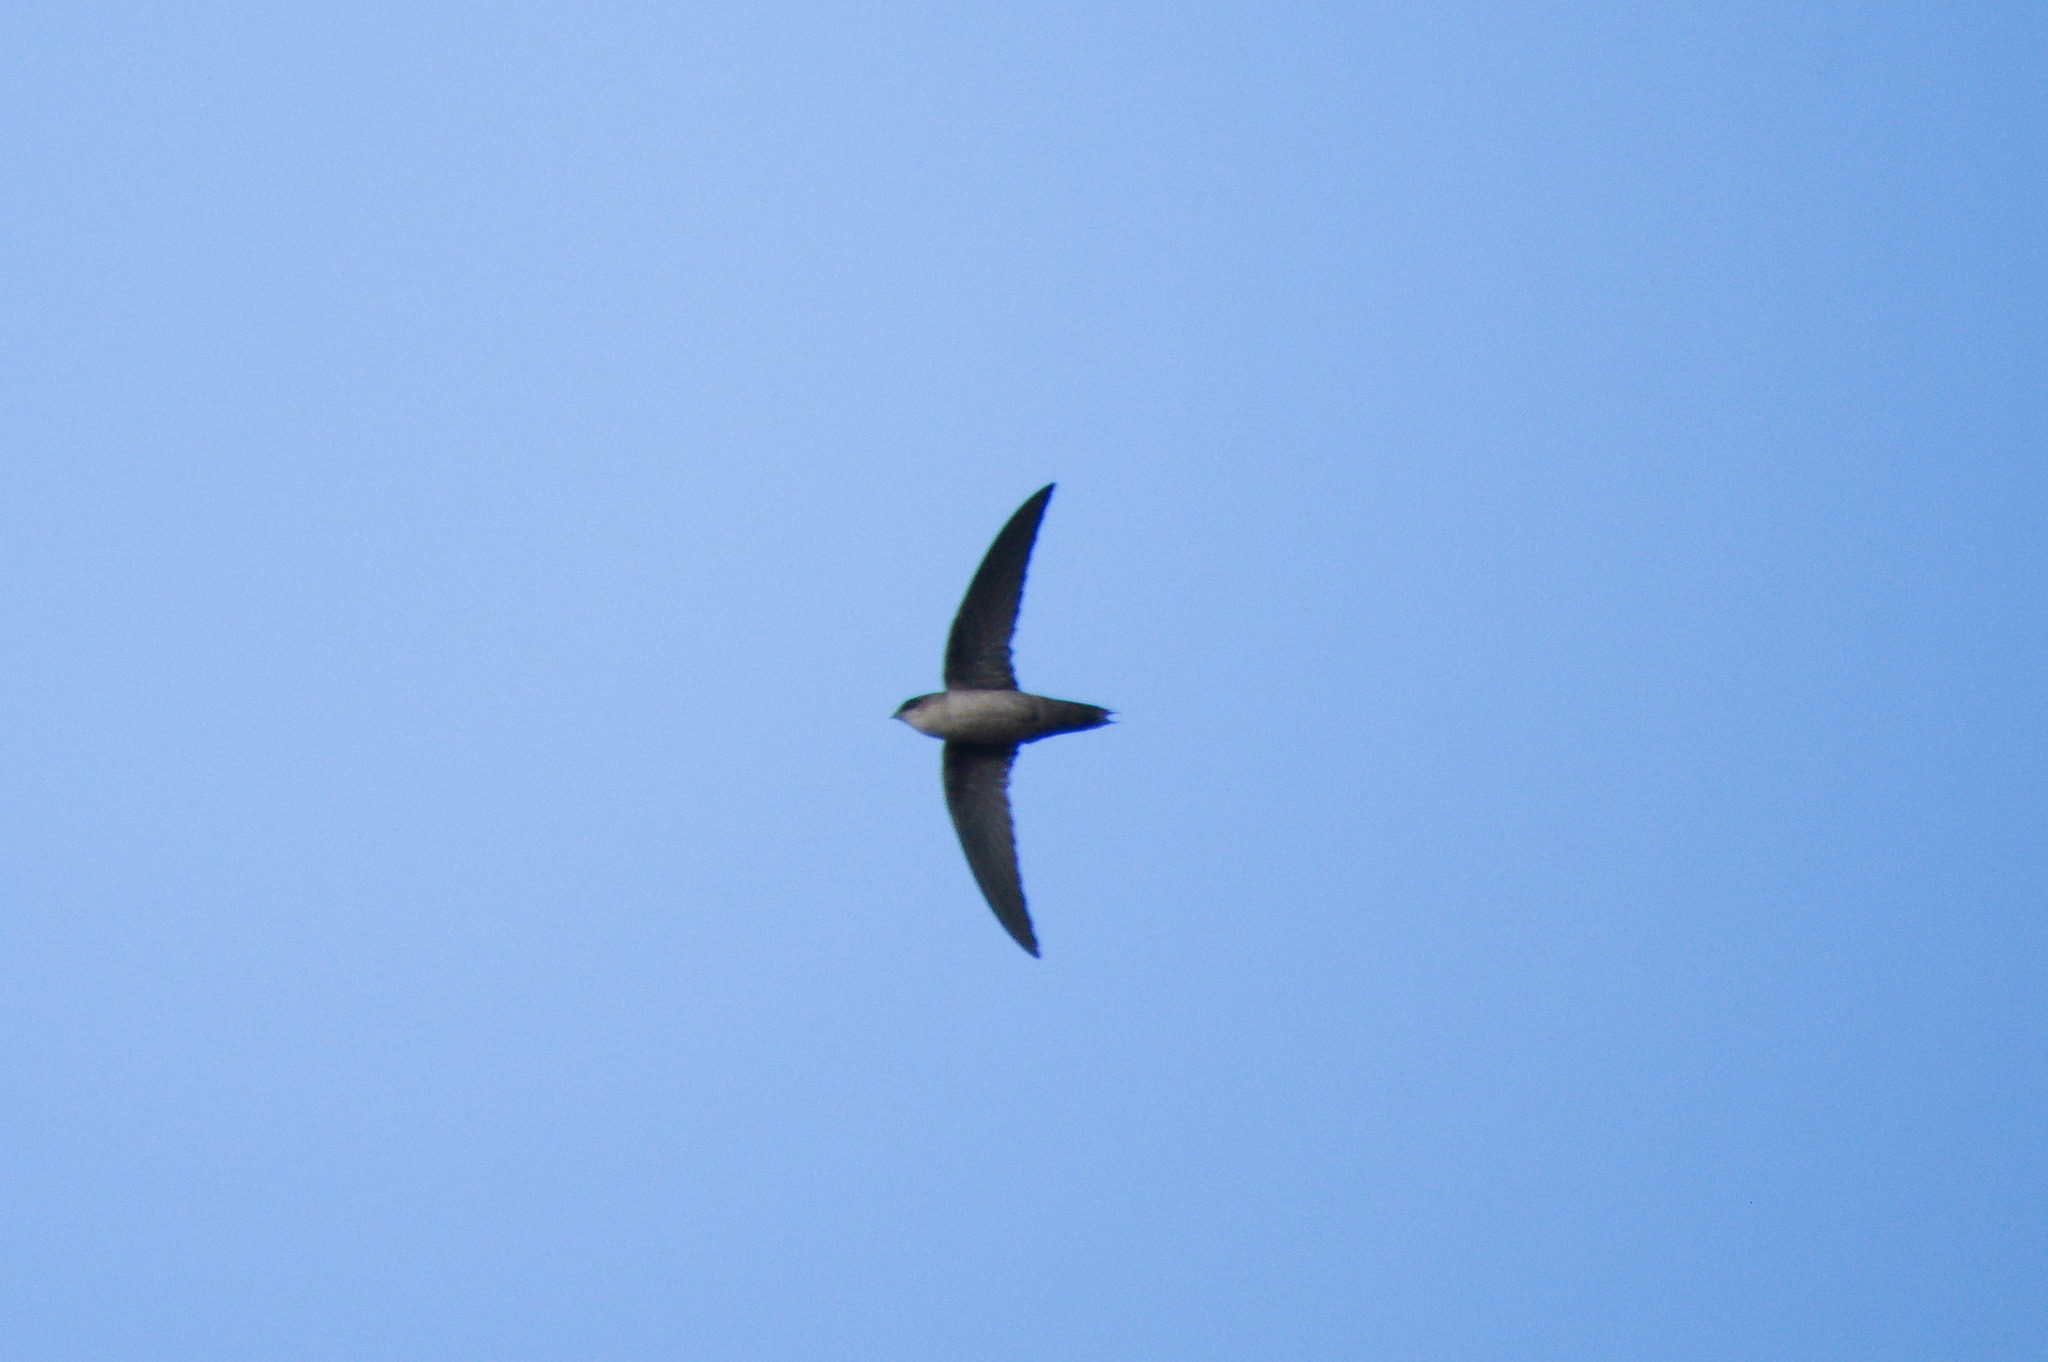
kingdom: Animalia
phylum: Chordata
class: Aves
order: Apodiformes
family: Apodidae
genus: Chaetura
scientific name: Chaetura vauxi
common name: Vaux's swift
